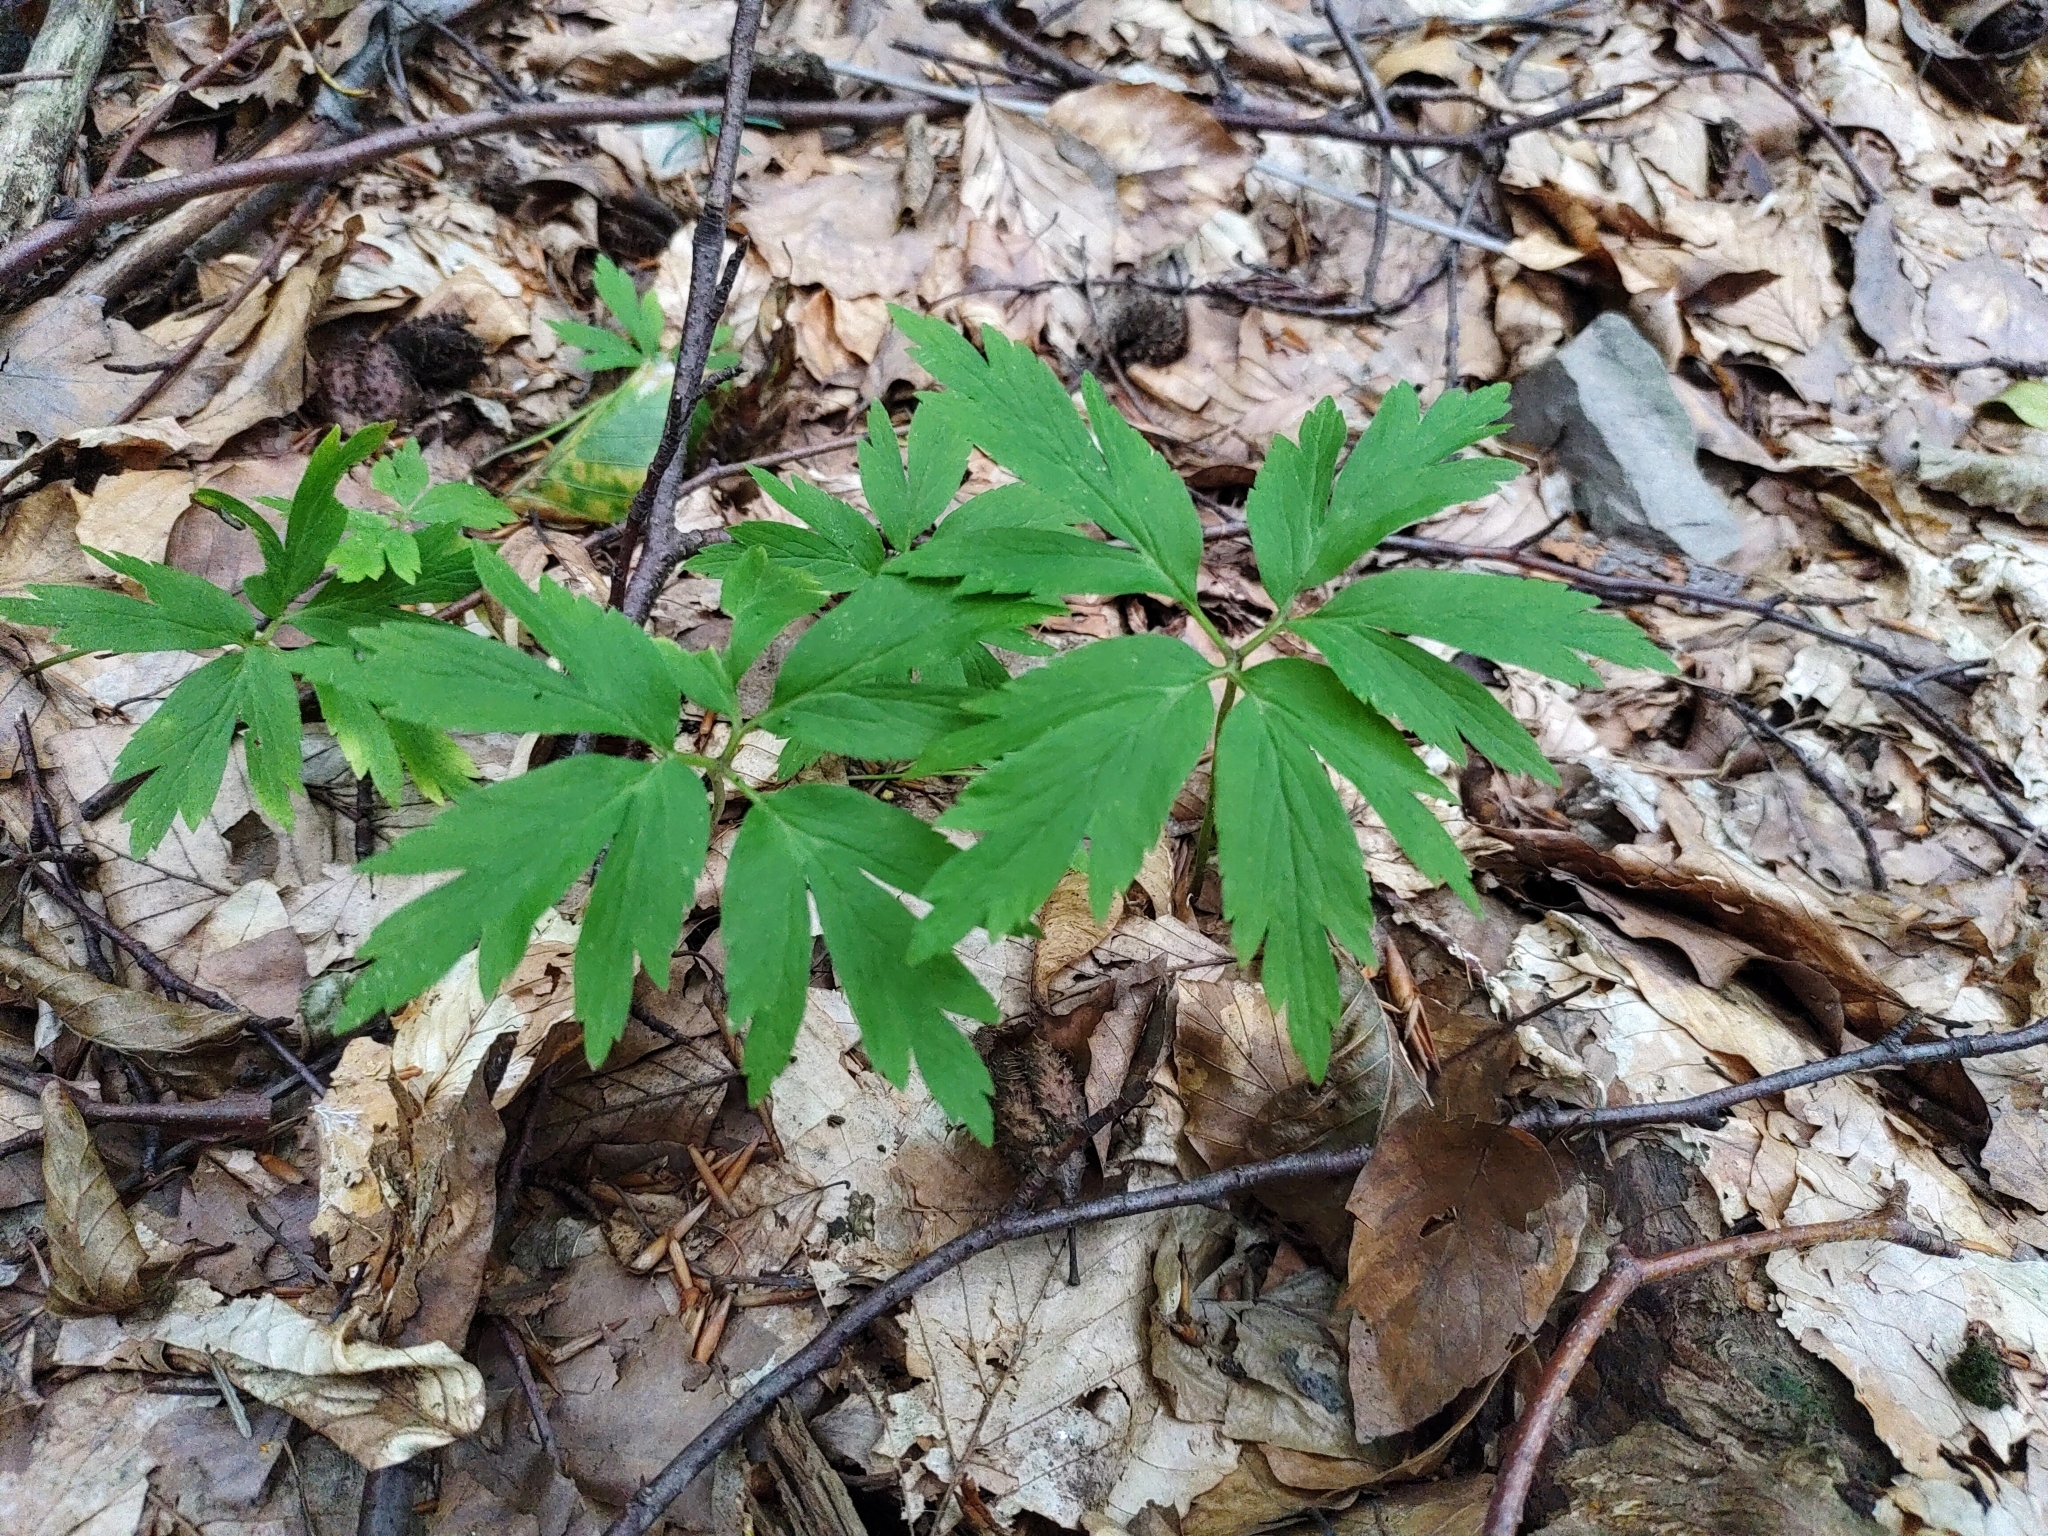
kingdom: Plantae
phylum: Tracheophyta
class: Magnoliopsida
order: Ranunculales
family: Ranunculaceae
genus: Anemone
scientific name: Anemone nemorosa
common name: Wood anemone
